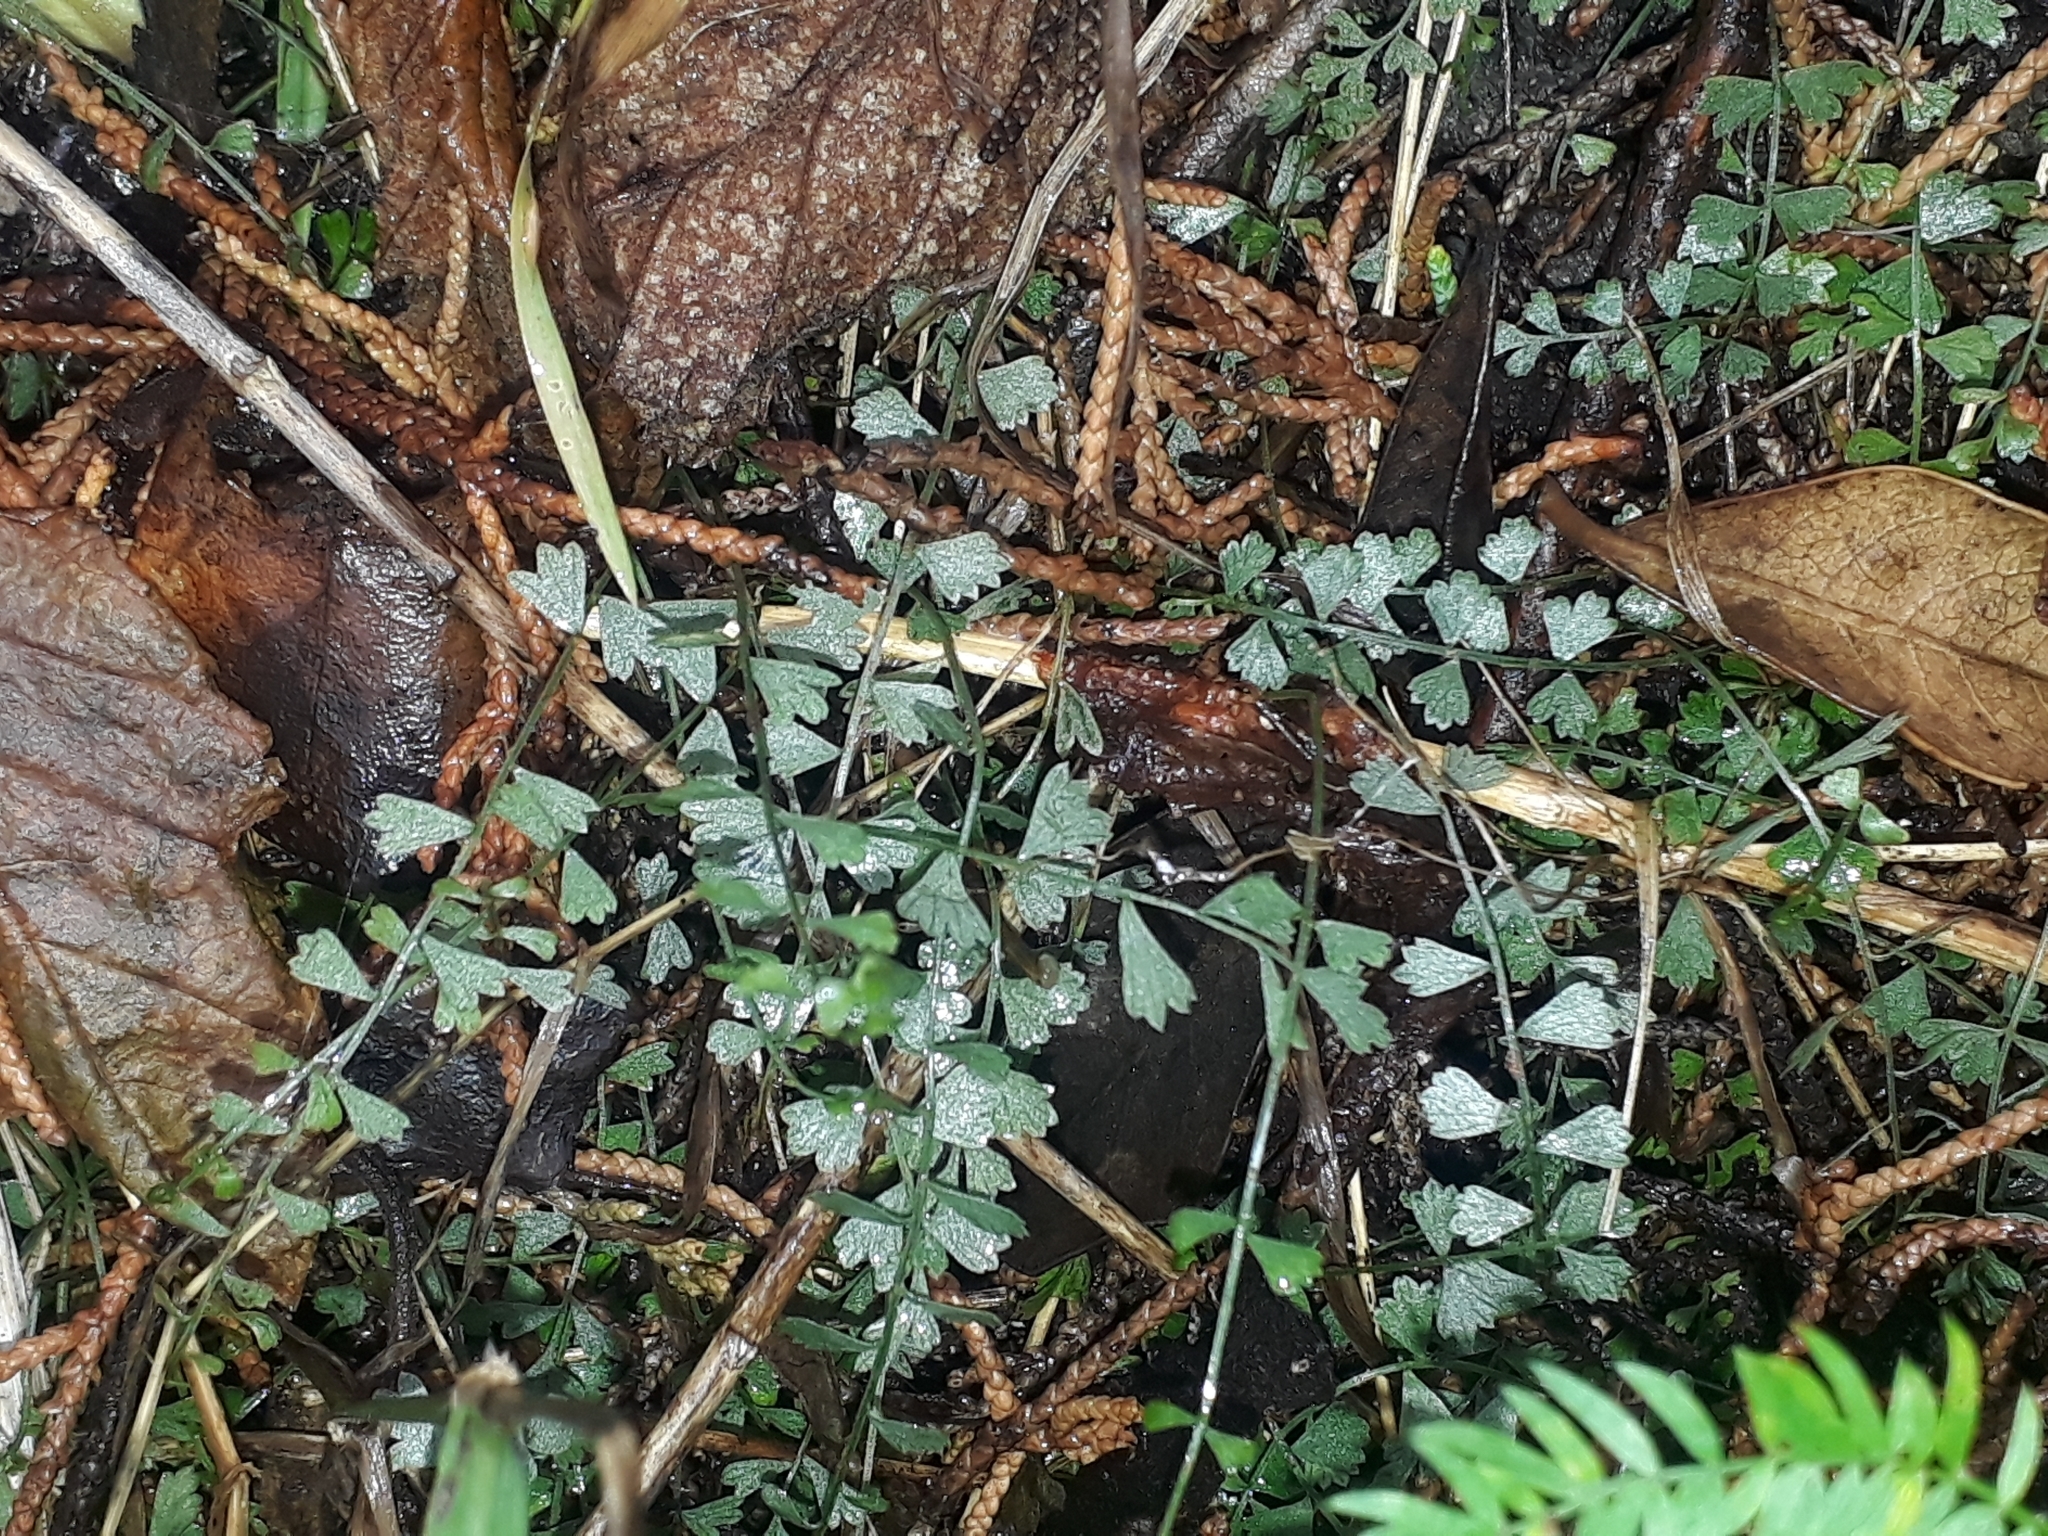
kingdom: Plantae
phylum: Tracheophyta
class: Polypodiopsida
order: Polypodiales
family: Aspleniaceae
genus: Asplenium
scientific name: Asplenium flabellifolium
